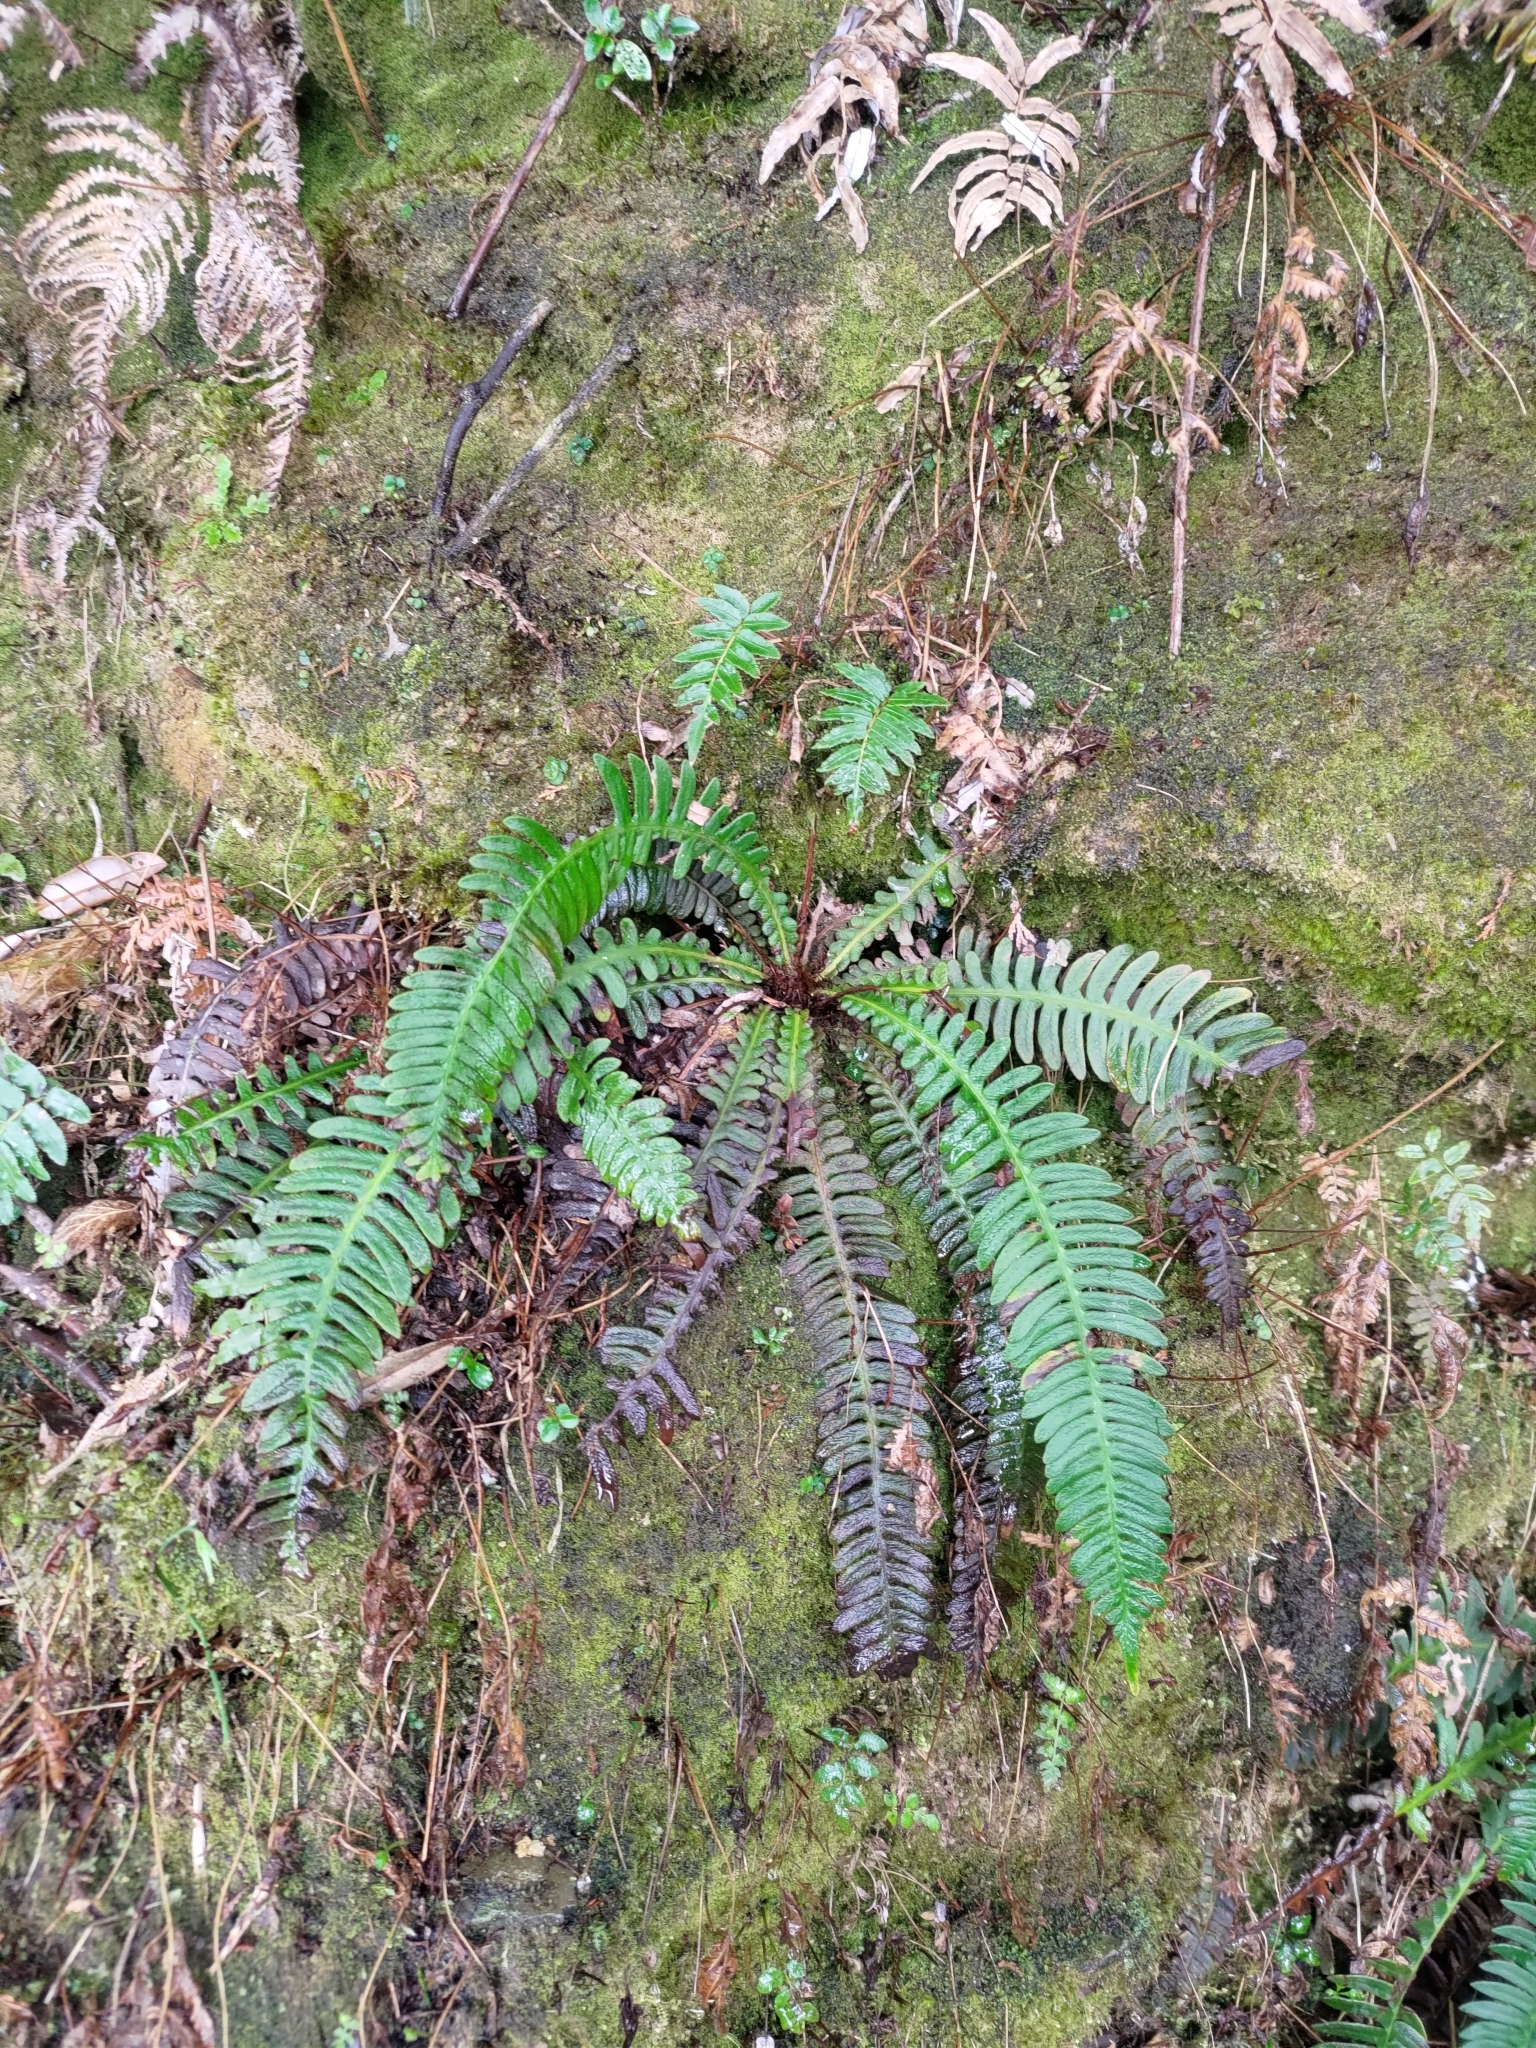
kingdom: Plantae
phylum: Tracheophyta
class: Polypodiopsida
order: Polypodiales
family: Blechnaceae
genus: Spicantopsis
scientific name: Spicantopsis hancockii
